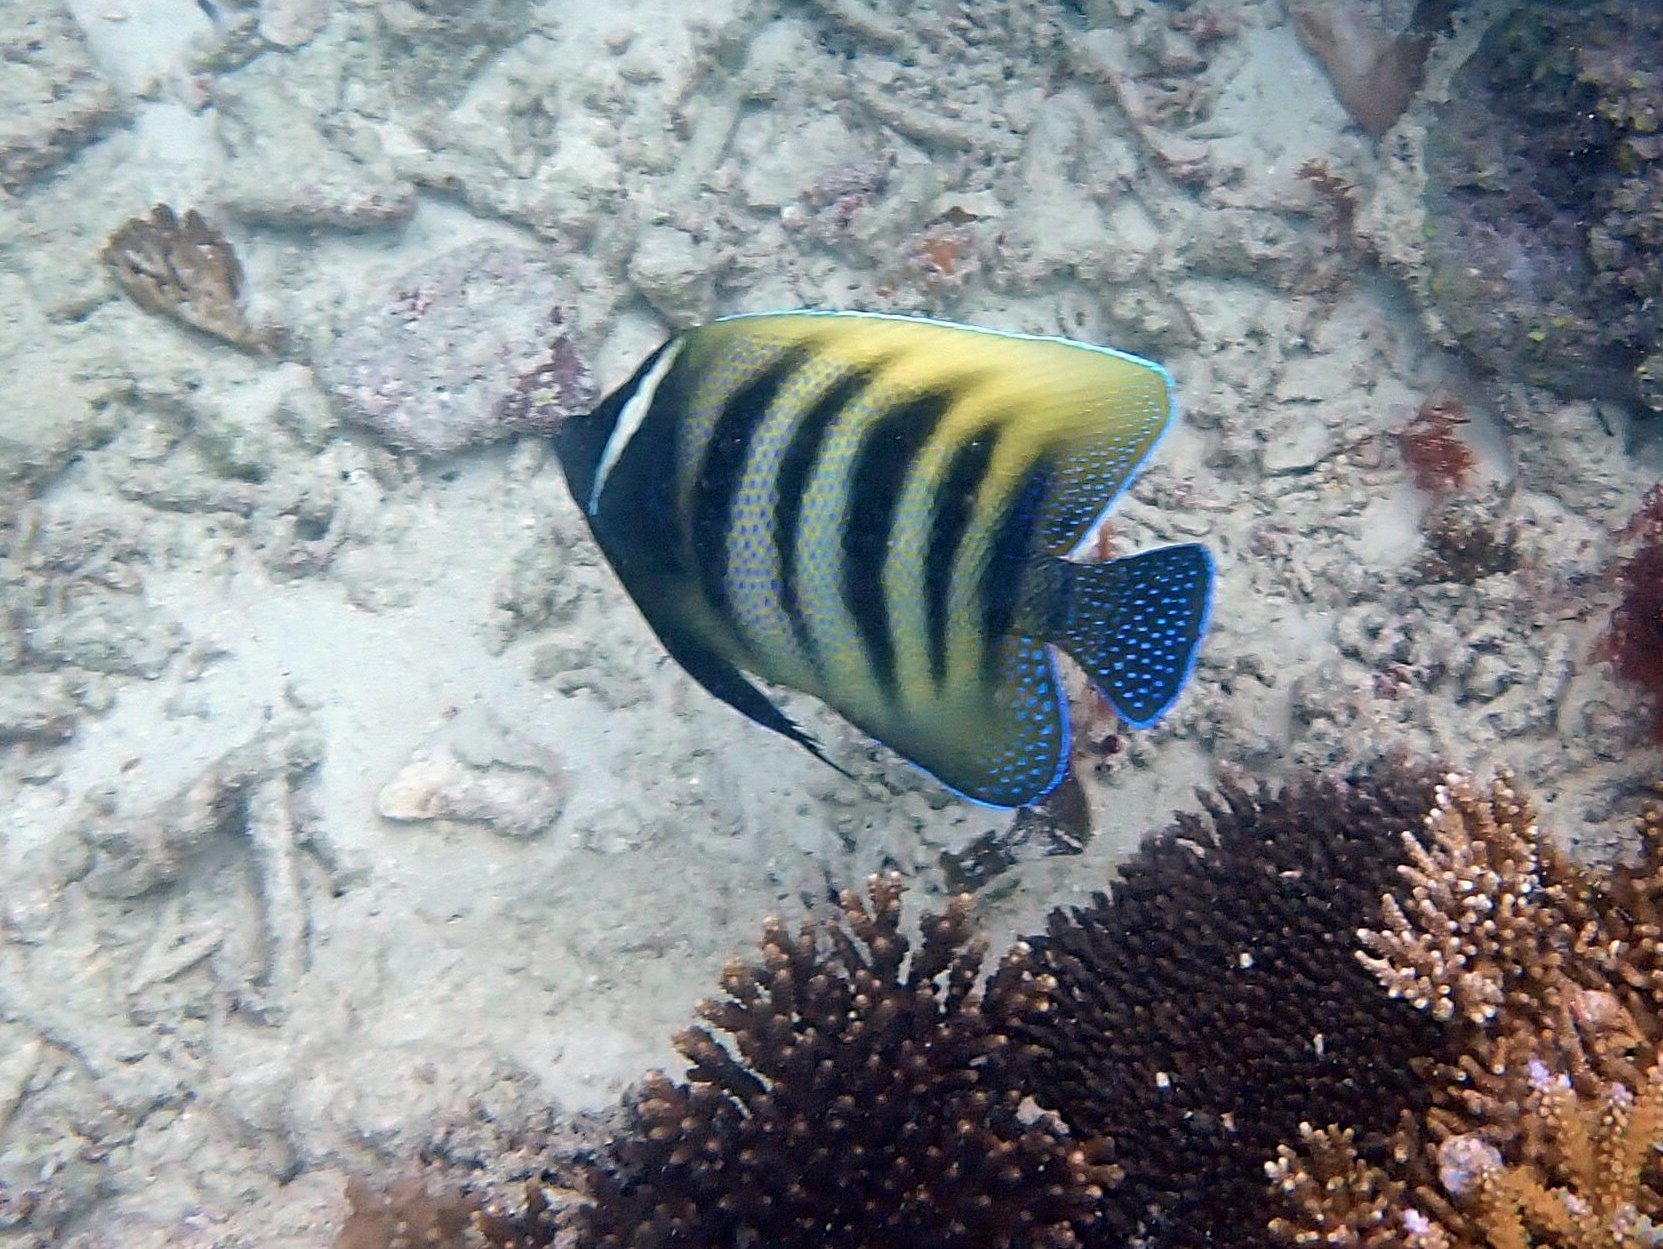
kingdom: Animalia
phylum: Chordata
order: Perciformes
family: Pomacanthidae
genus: Pomacanthus
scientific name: Pomacanthus sexstriatus
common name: Six-banded angelfish
